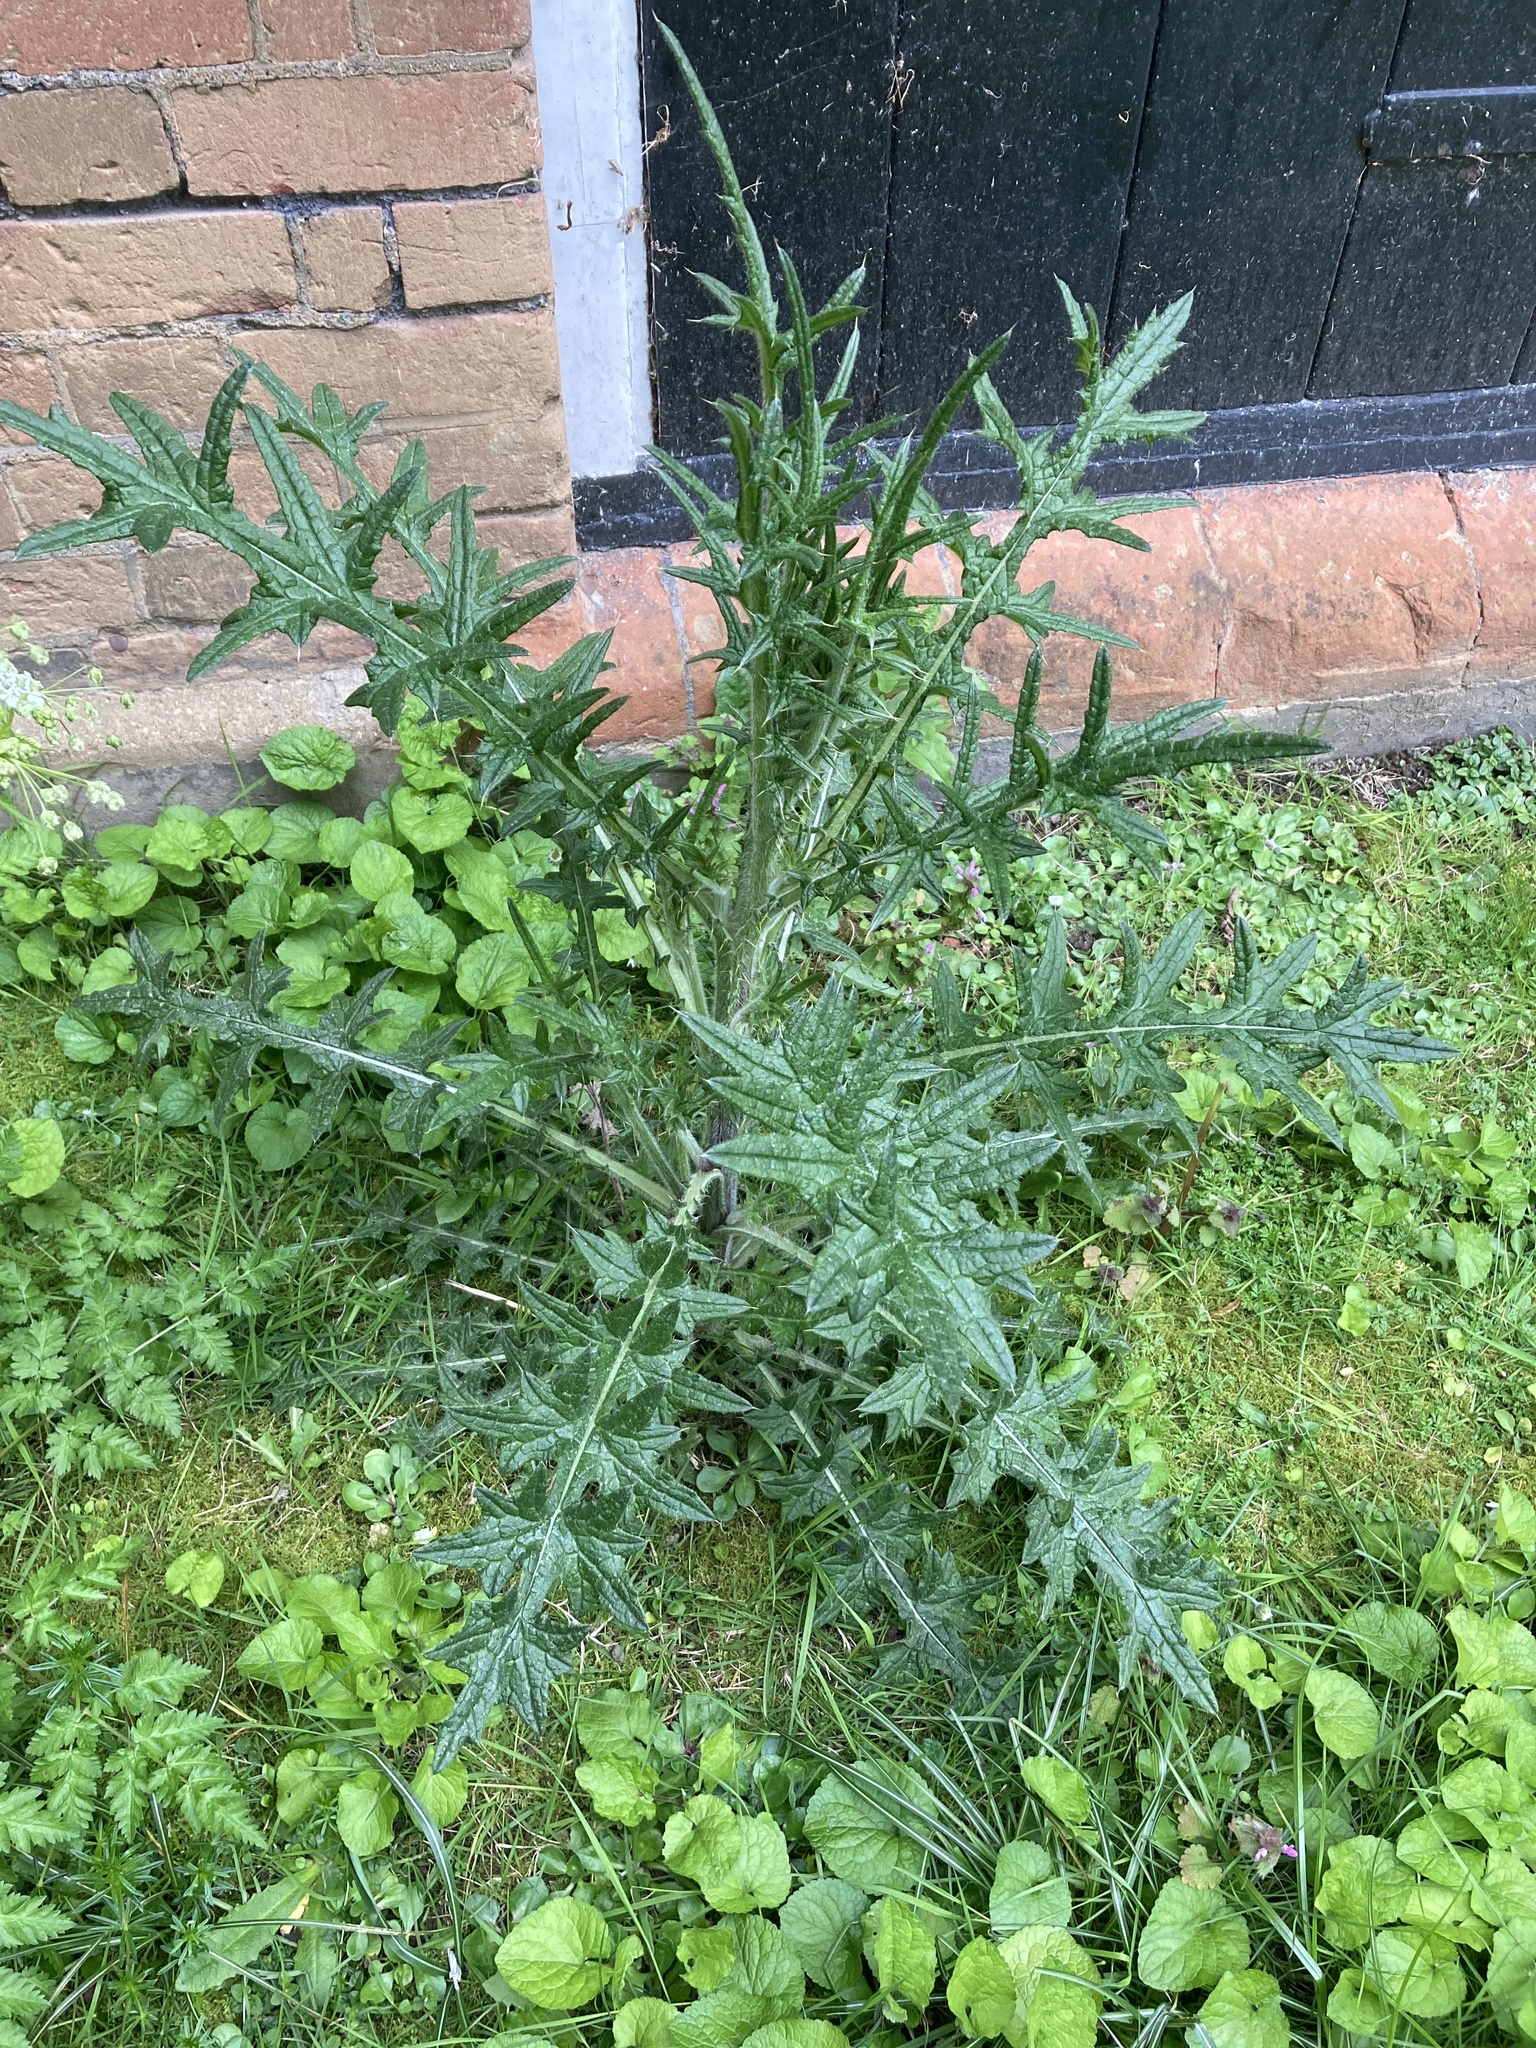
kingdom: Plantae
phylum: Tracheophyta
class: Magnoliopsida
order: Asterales
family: Asteraceae
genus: Cirsium
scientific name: Cirsium vulgare
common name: Bull thistle
